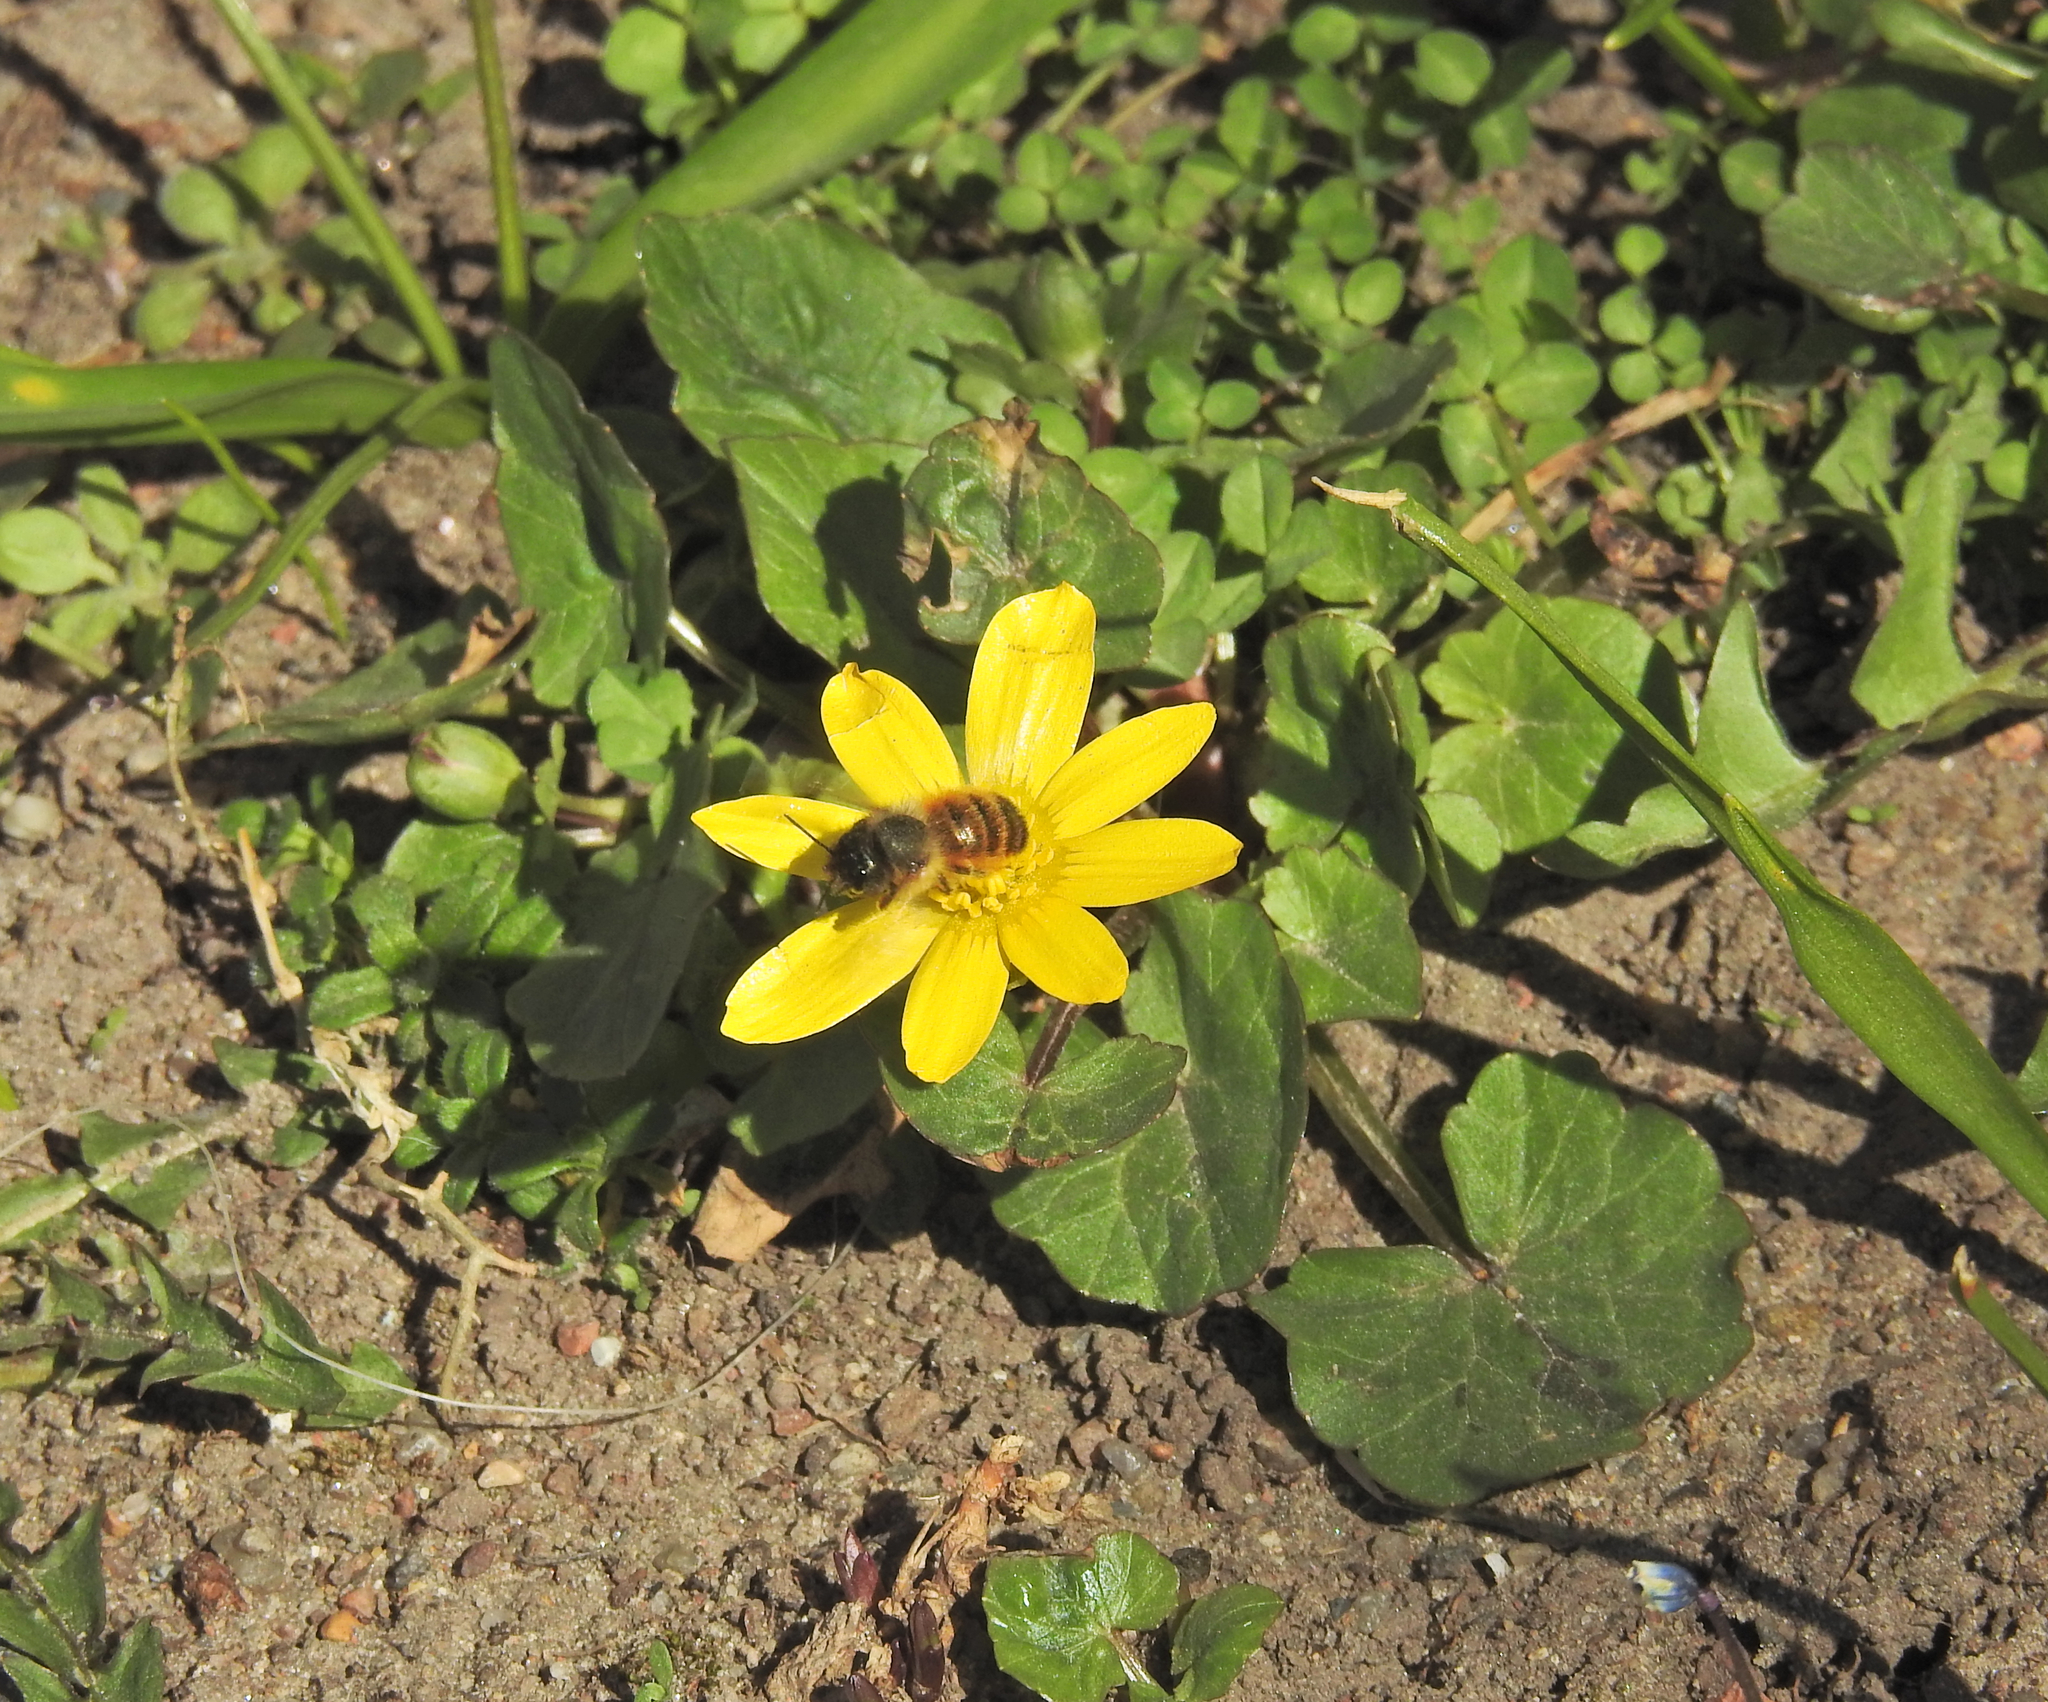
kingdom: Plantae
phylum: Tracheophyta
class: Magnoliopsida
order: Ranunculales
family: Ranunculaceae
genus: Ficaria
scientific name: Ficaria verna
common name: Lesser celandine
